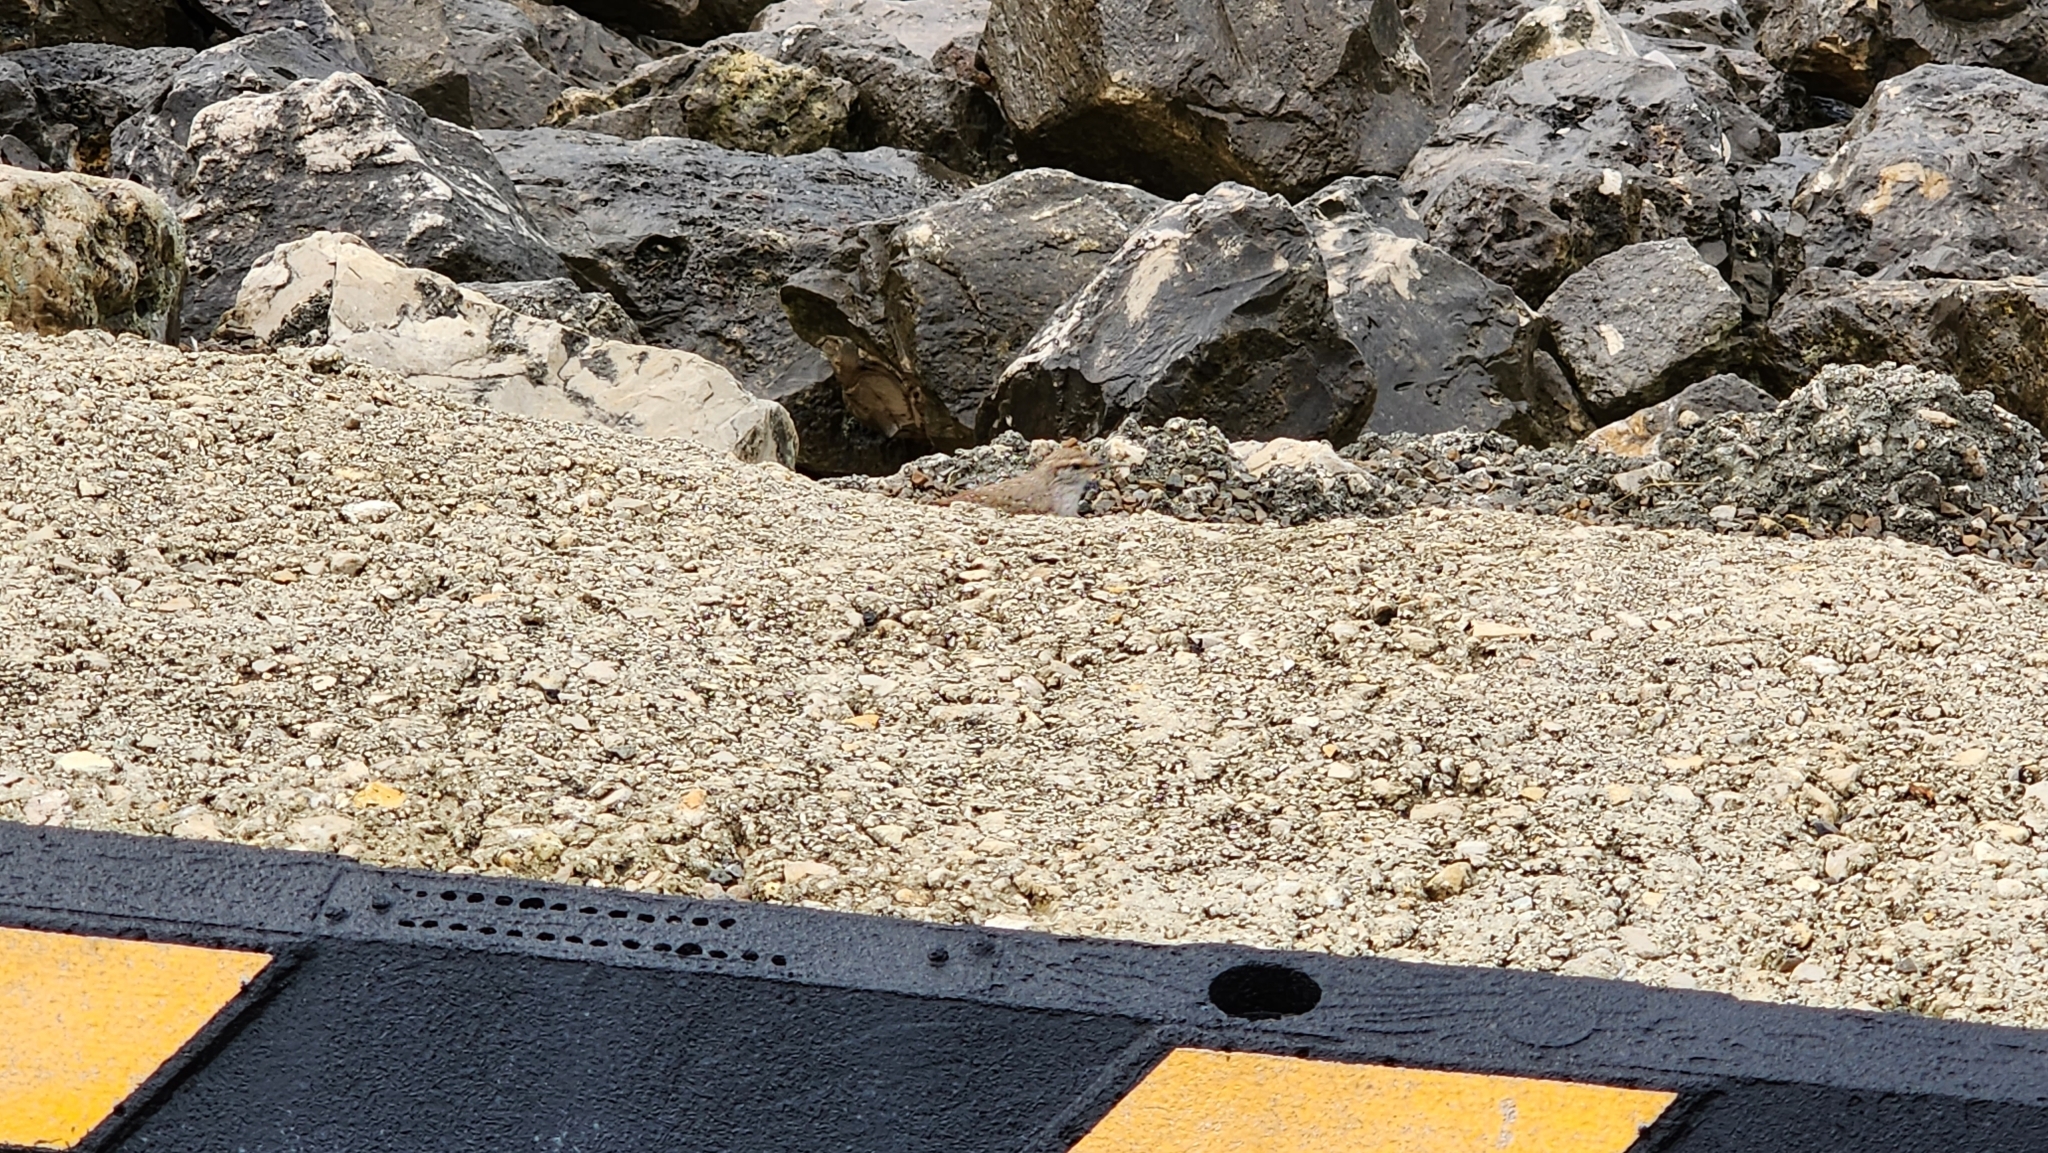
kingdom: Animalia
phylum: Chordata
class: Aves
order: Passeriformes
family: Troglodytidae
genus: Salpinctes
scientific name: Salpinctes obsoletus
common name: Rock wren
